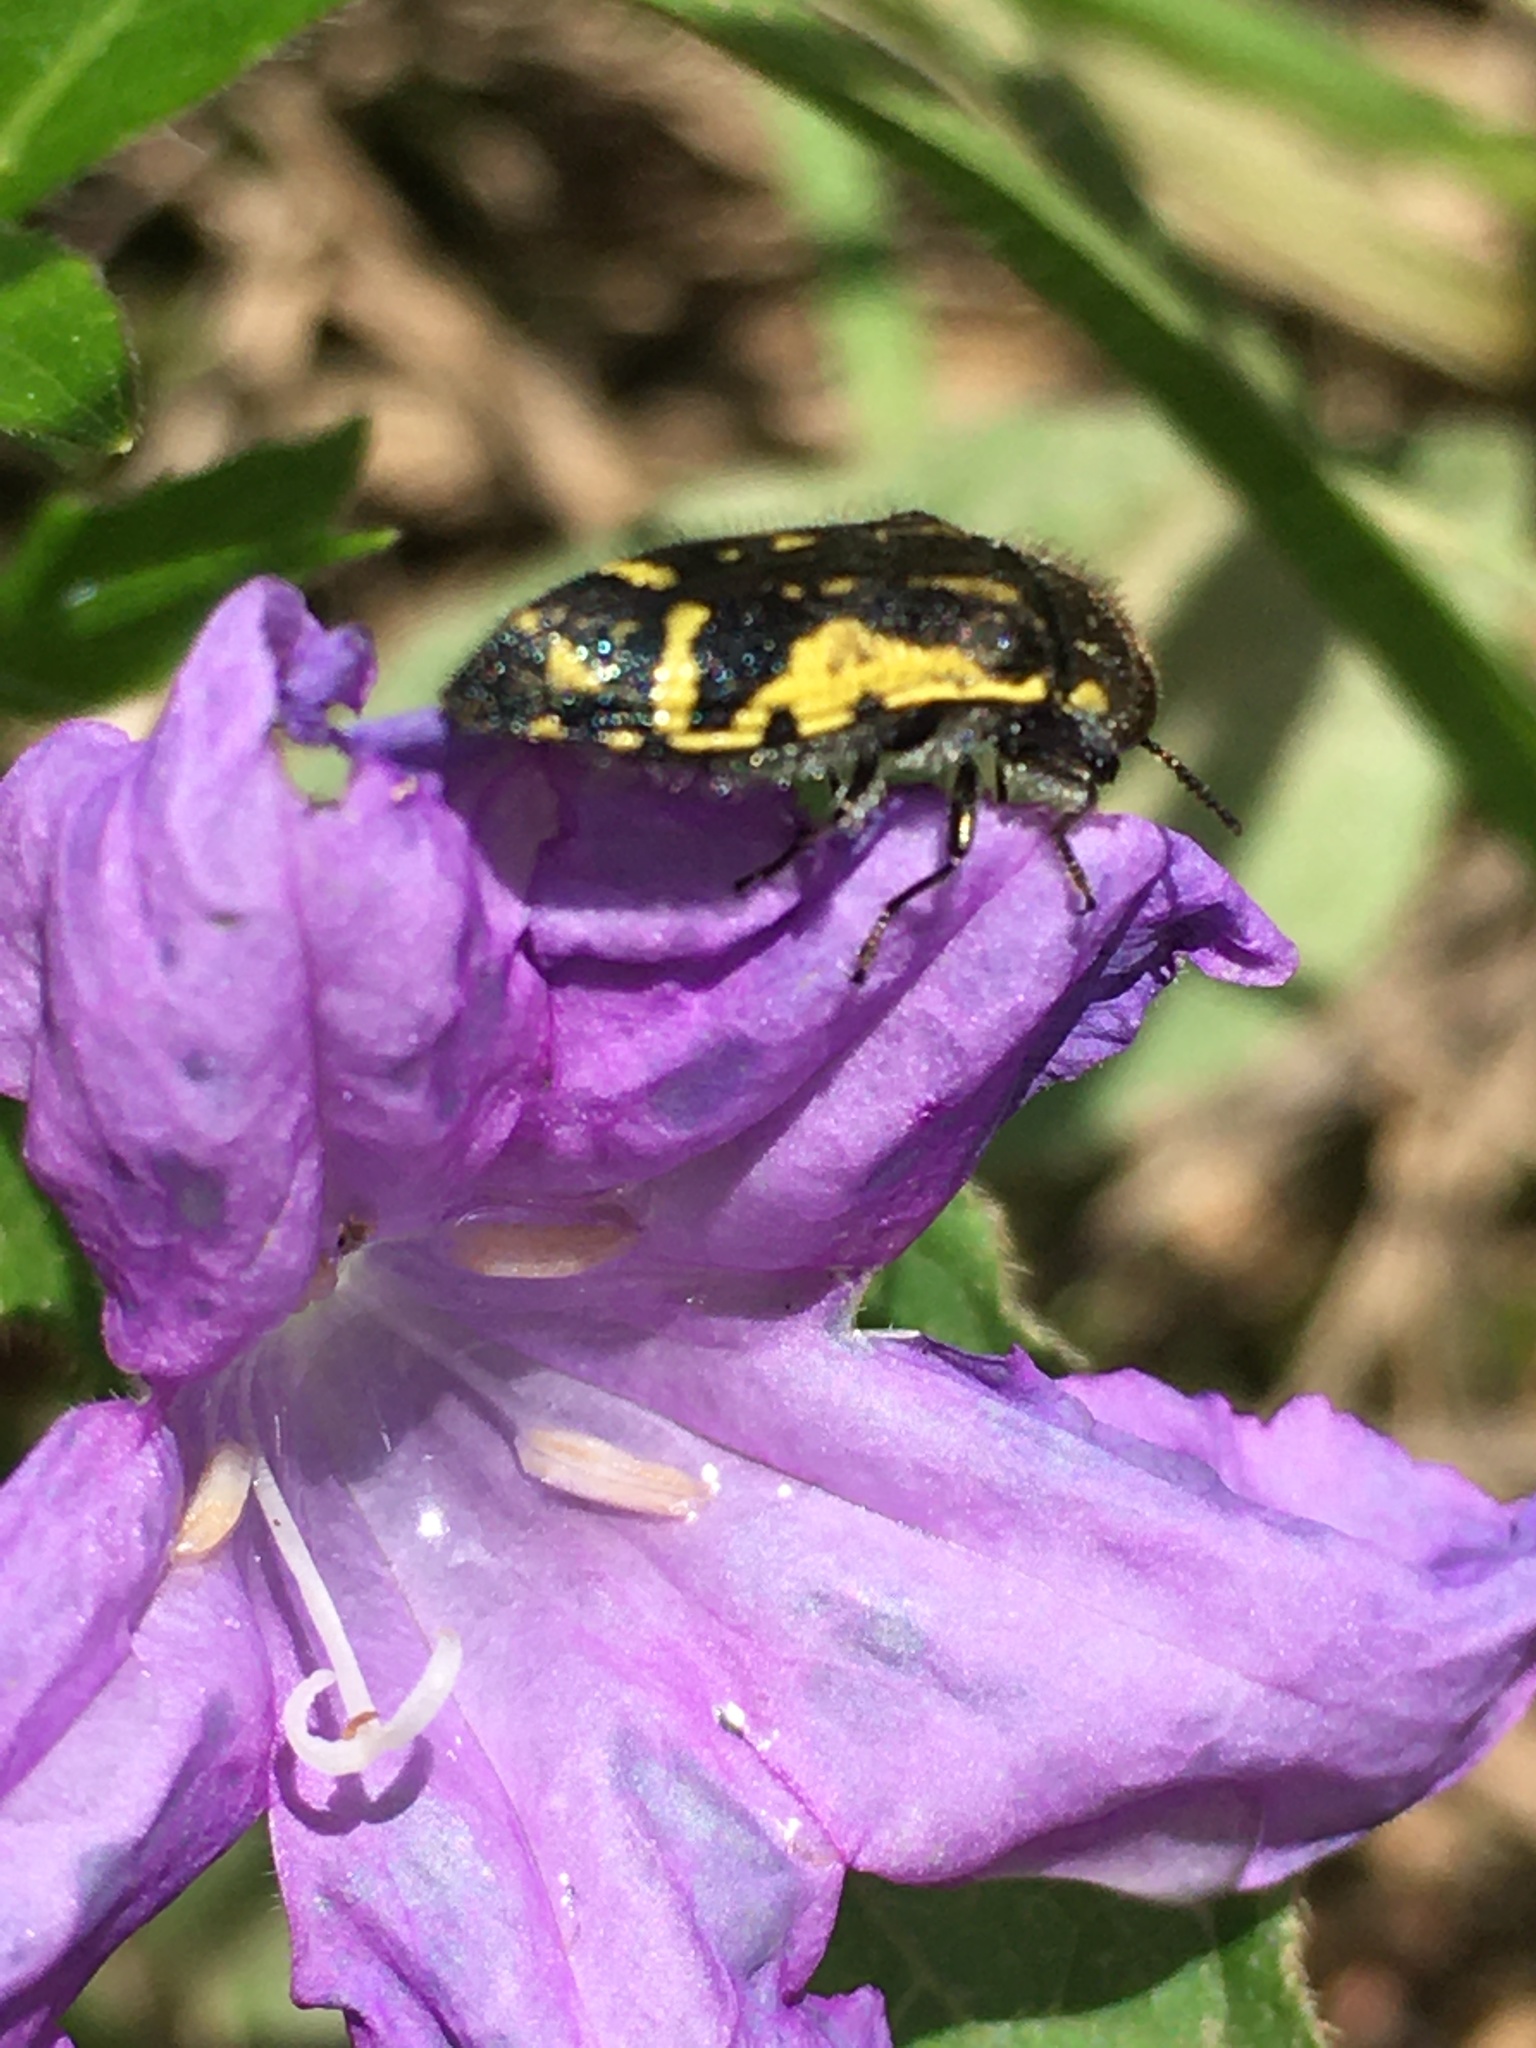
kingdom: Plantae
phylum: Tracheophyta
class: Magnoliopsida
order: Lamiales
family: Acanthaceae
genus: Ruellia
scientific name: Ruellia caroliniensis
